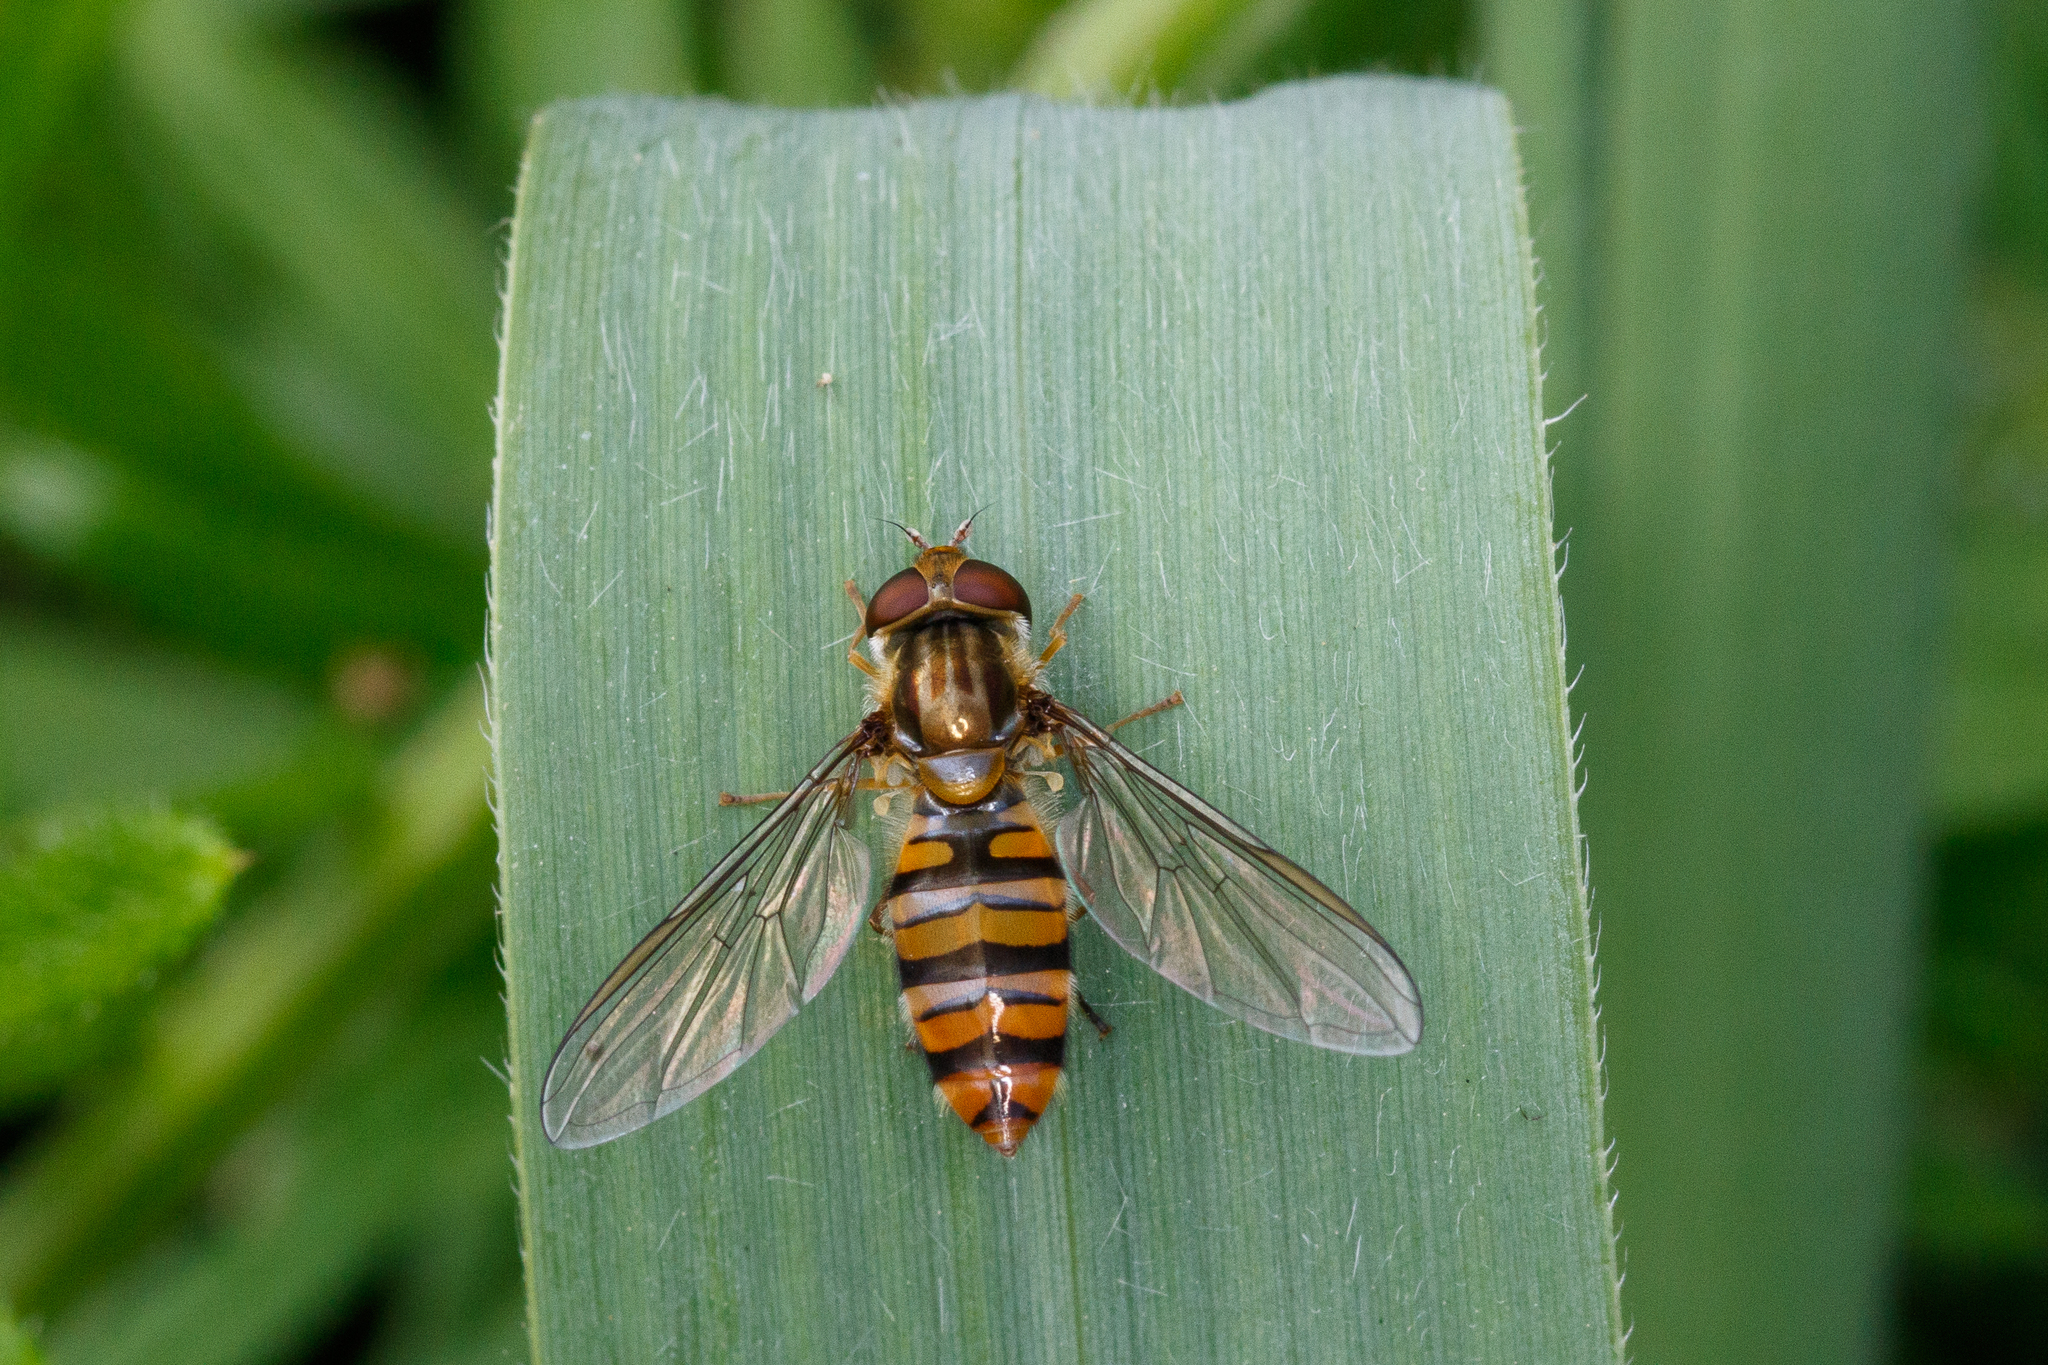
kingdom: Animalia
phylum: Arthropoda
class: Insecta
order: Diptera
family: Syrphidae
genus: Episyrphus
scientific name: Episyrphus balteatus
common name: Marmalade hoverfly
